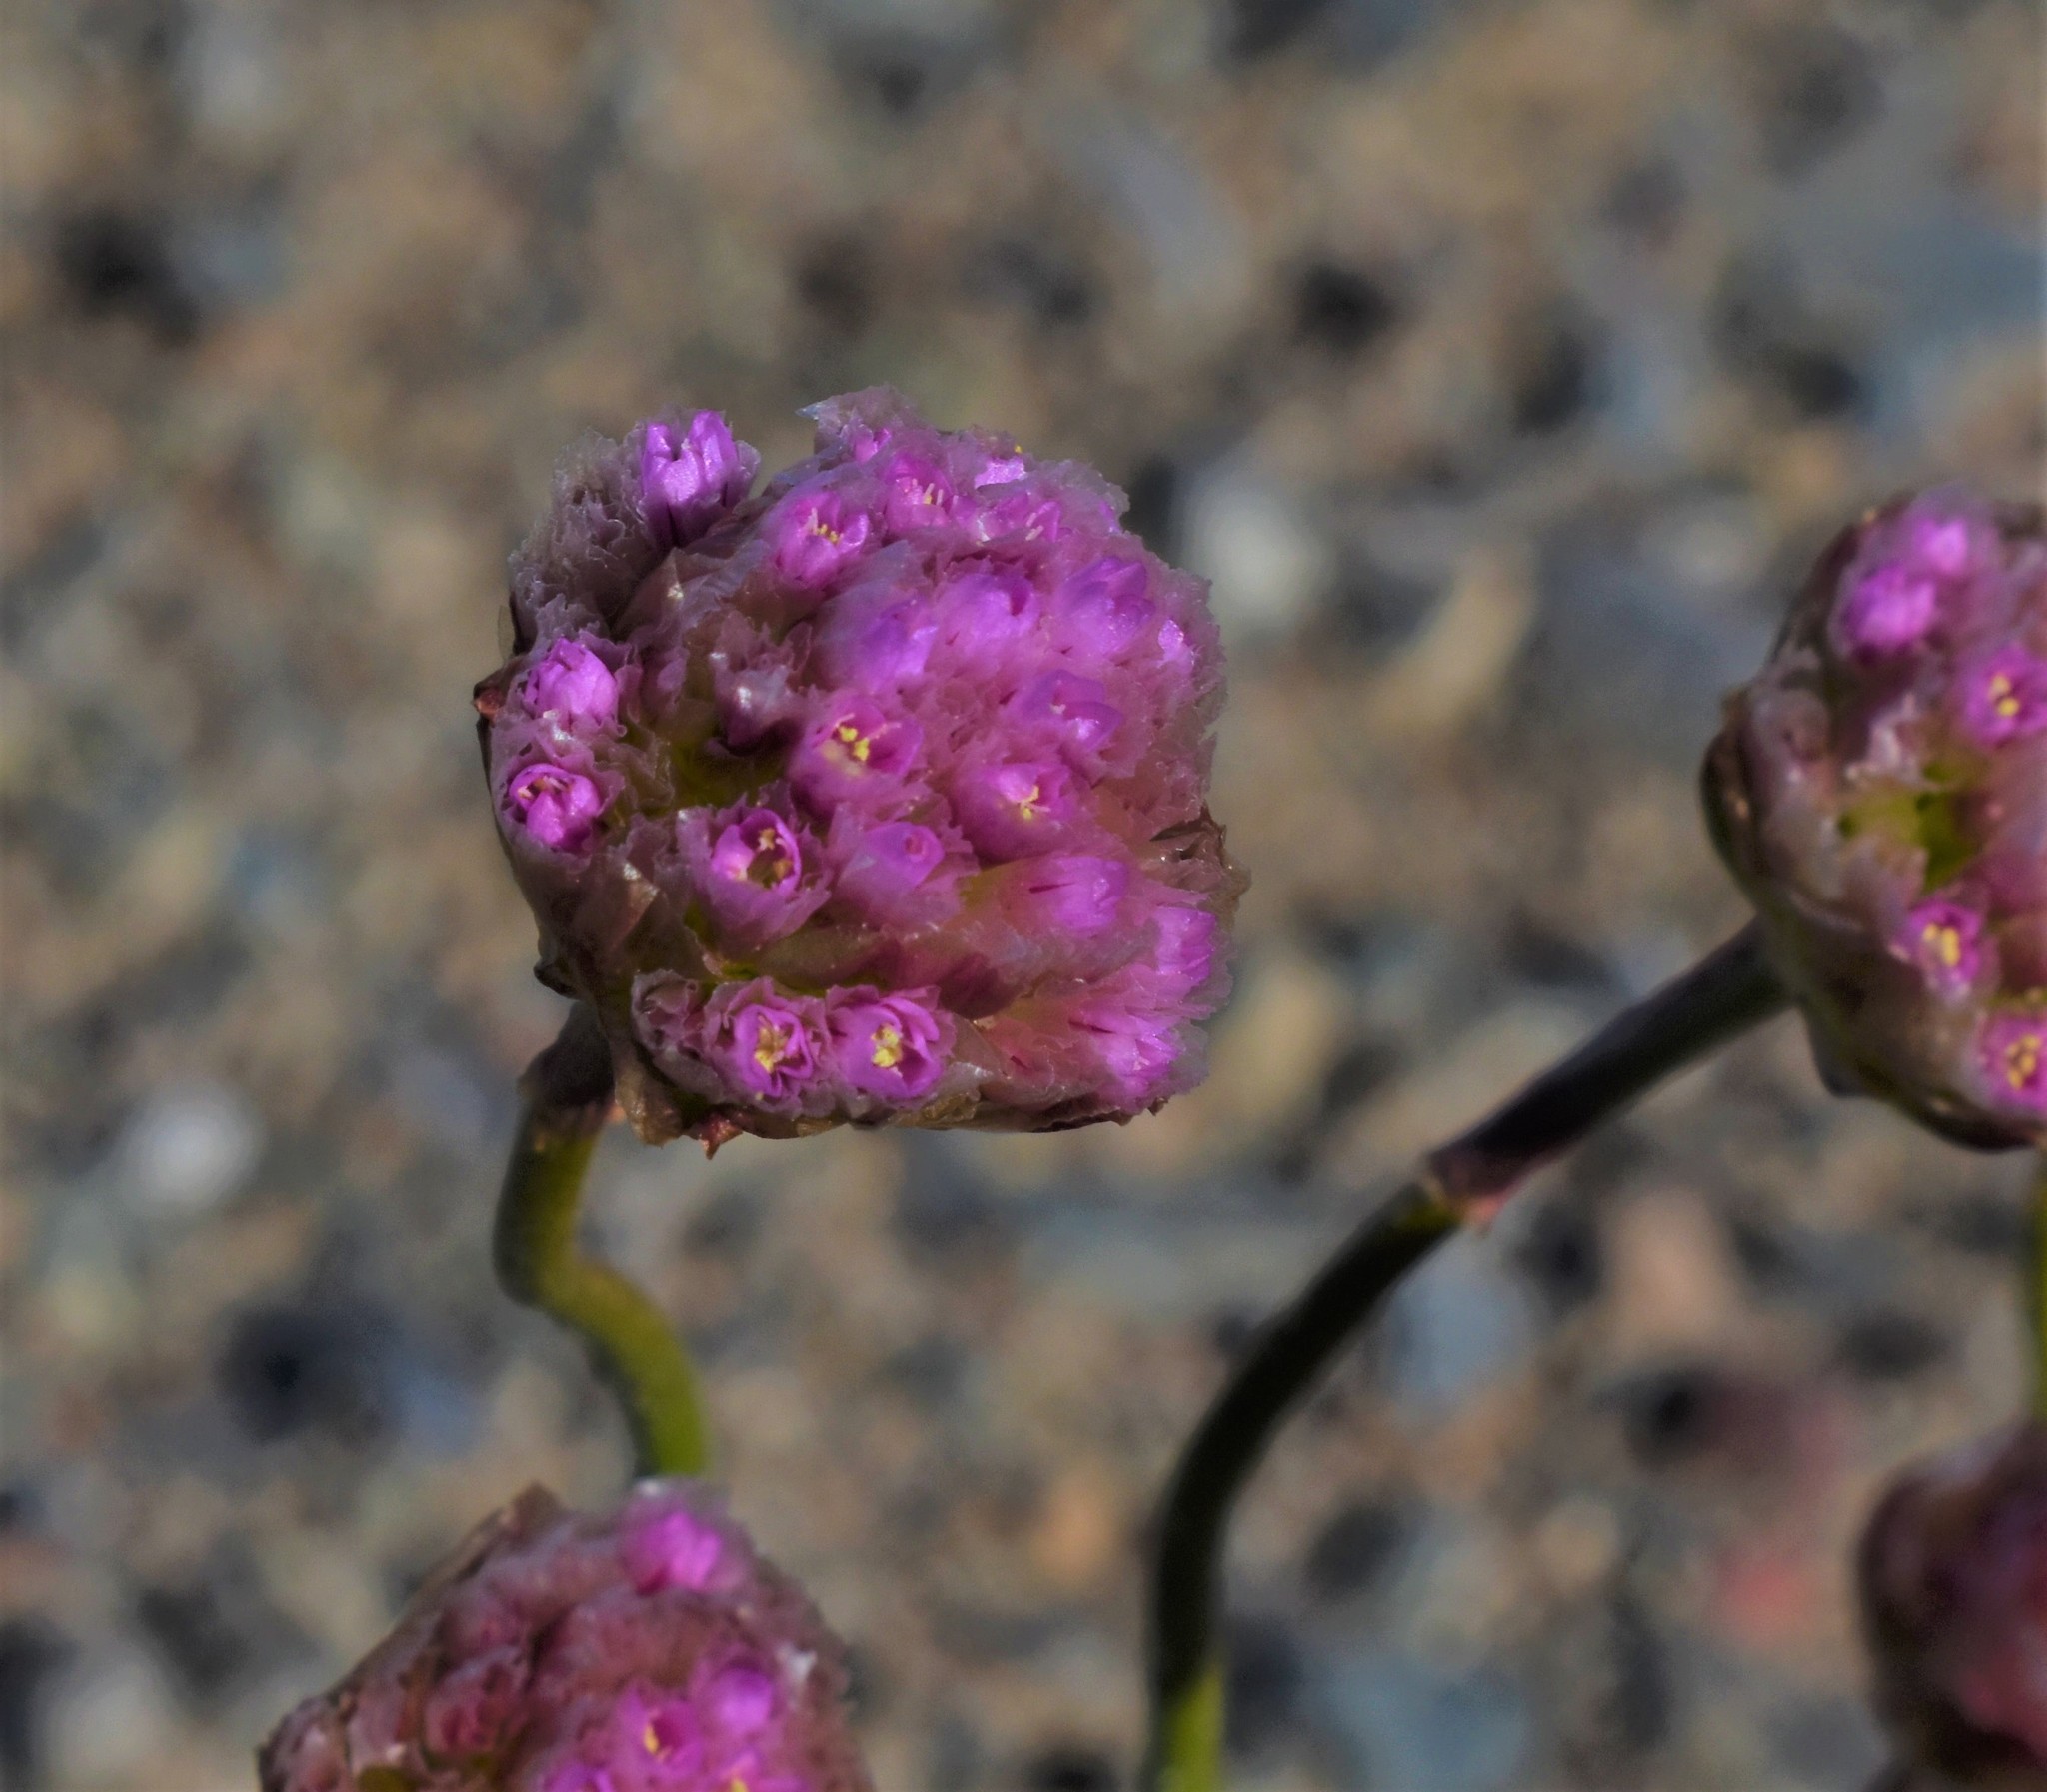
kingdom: Plantae
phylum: Tracheophyta
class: Magnoliopsida
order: Caryophyllales
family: Plumbaginaceae
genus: Armeria
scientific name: Armeria maritima
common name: Thrift
